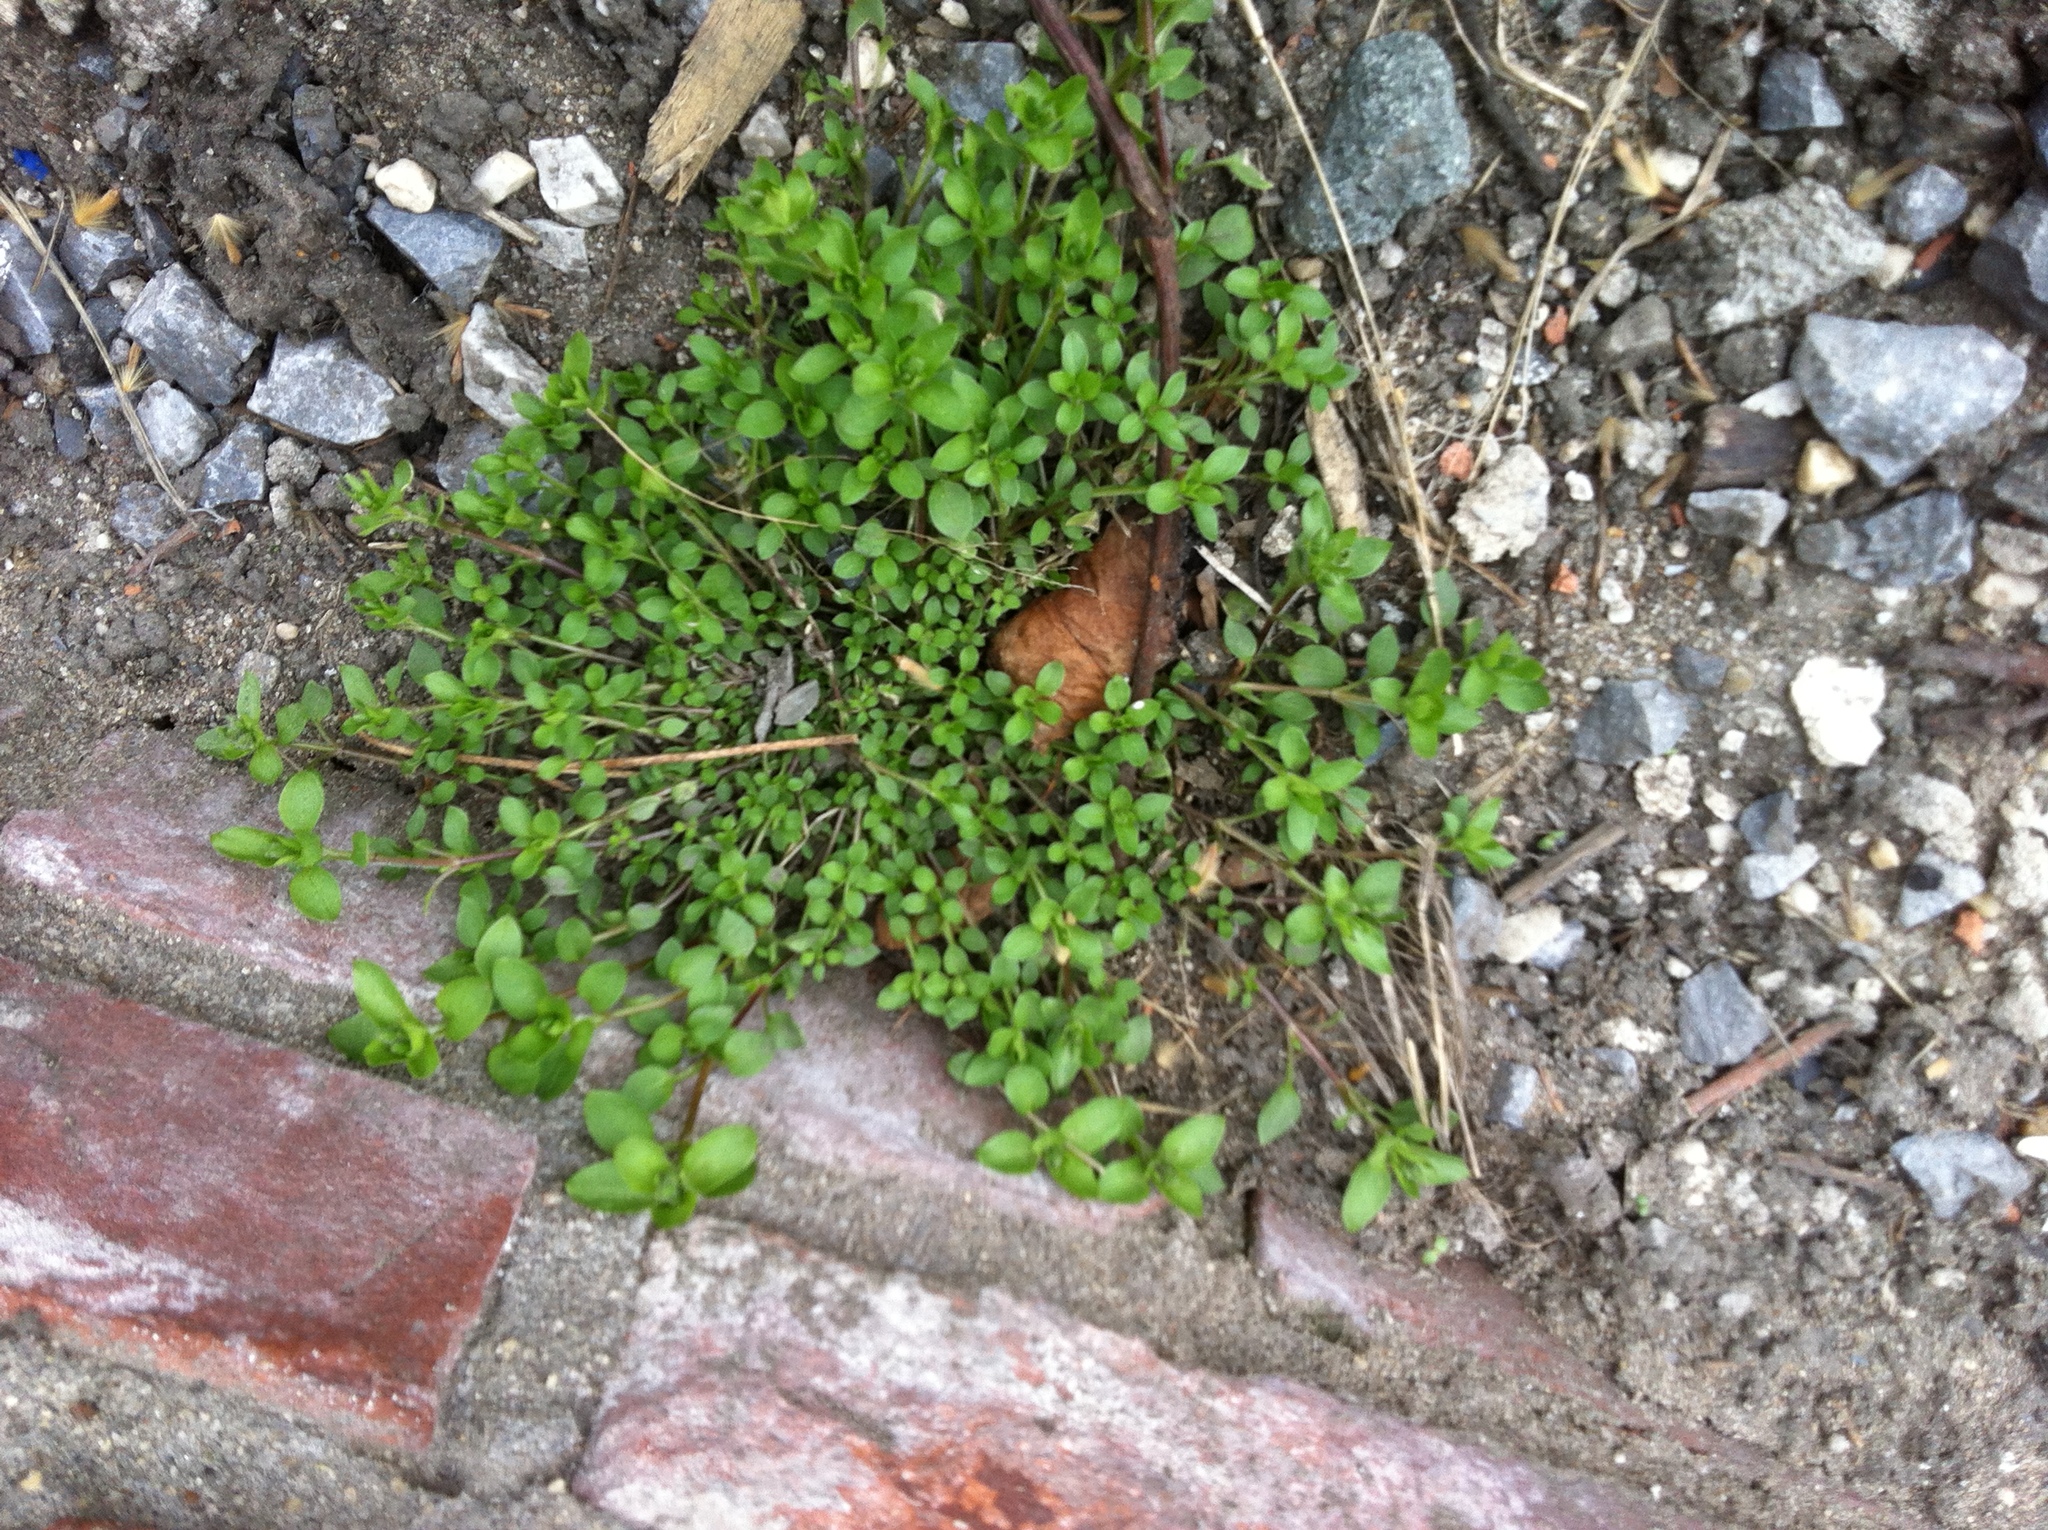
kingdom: Plantae
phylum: Tracheophyta
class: Magnoliopsida
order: Caryophyllales
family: Caryophyllaceae
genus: Stellaria
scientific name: Stellaria media
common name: Common chickweed
